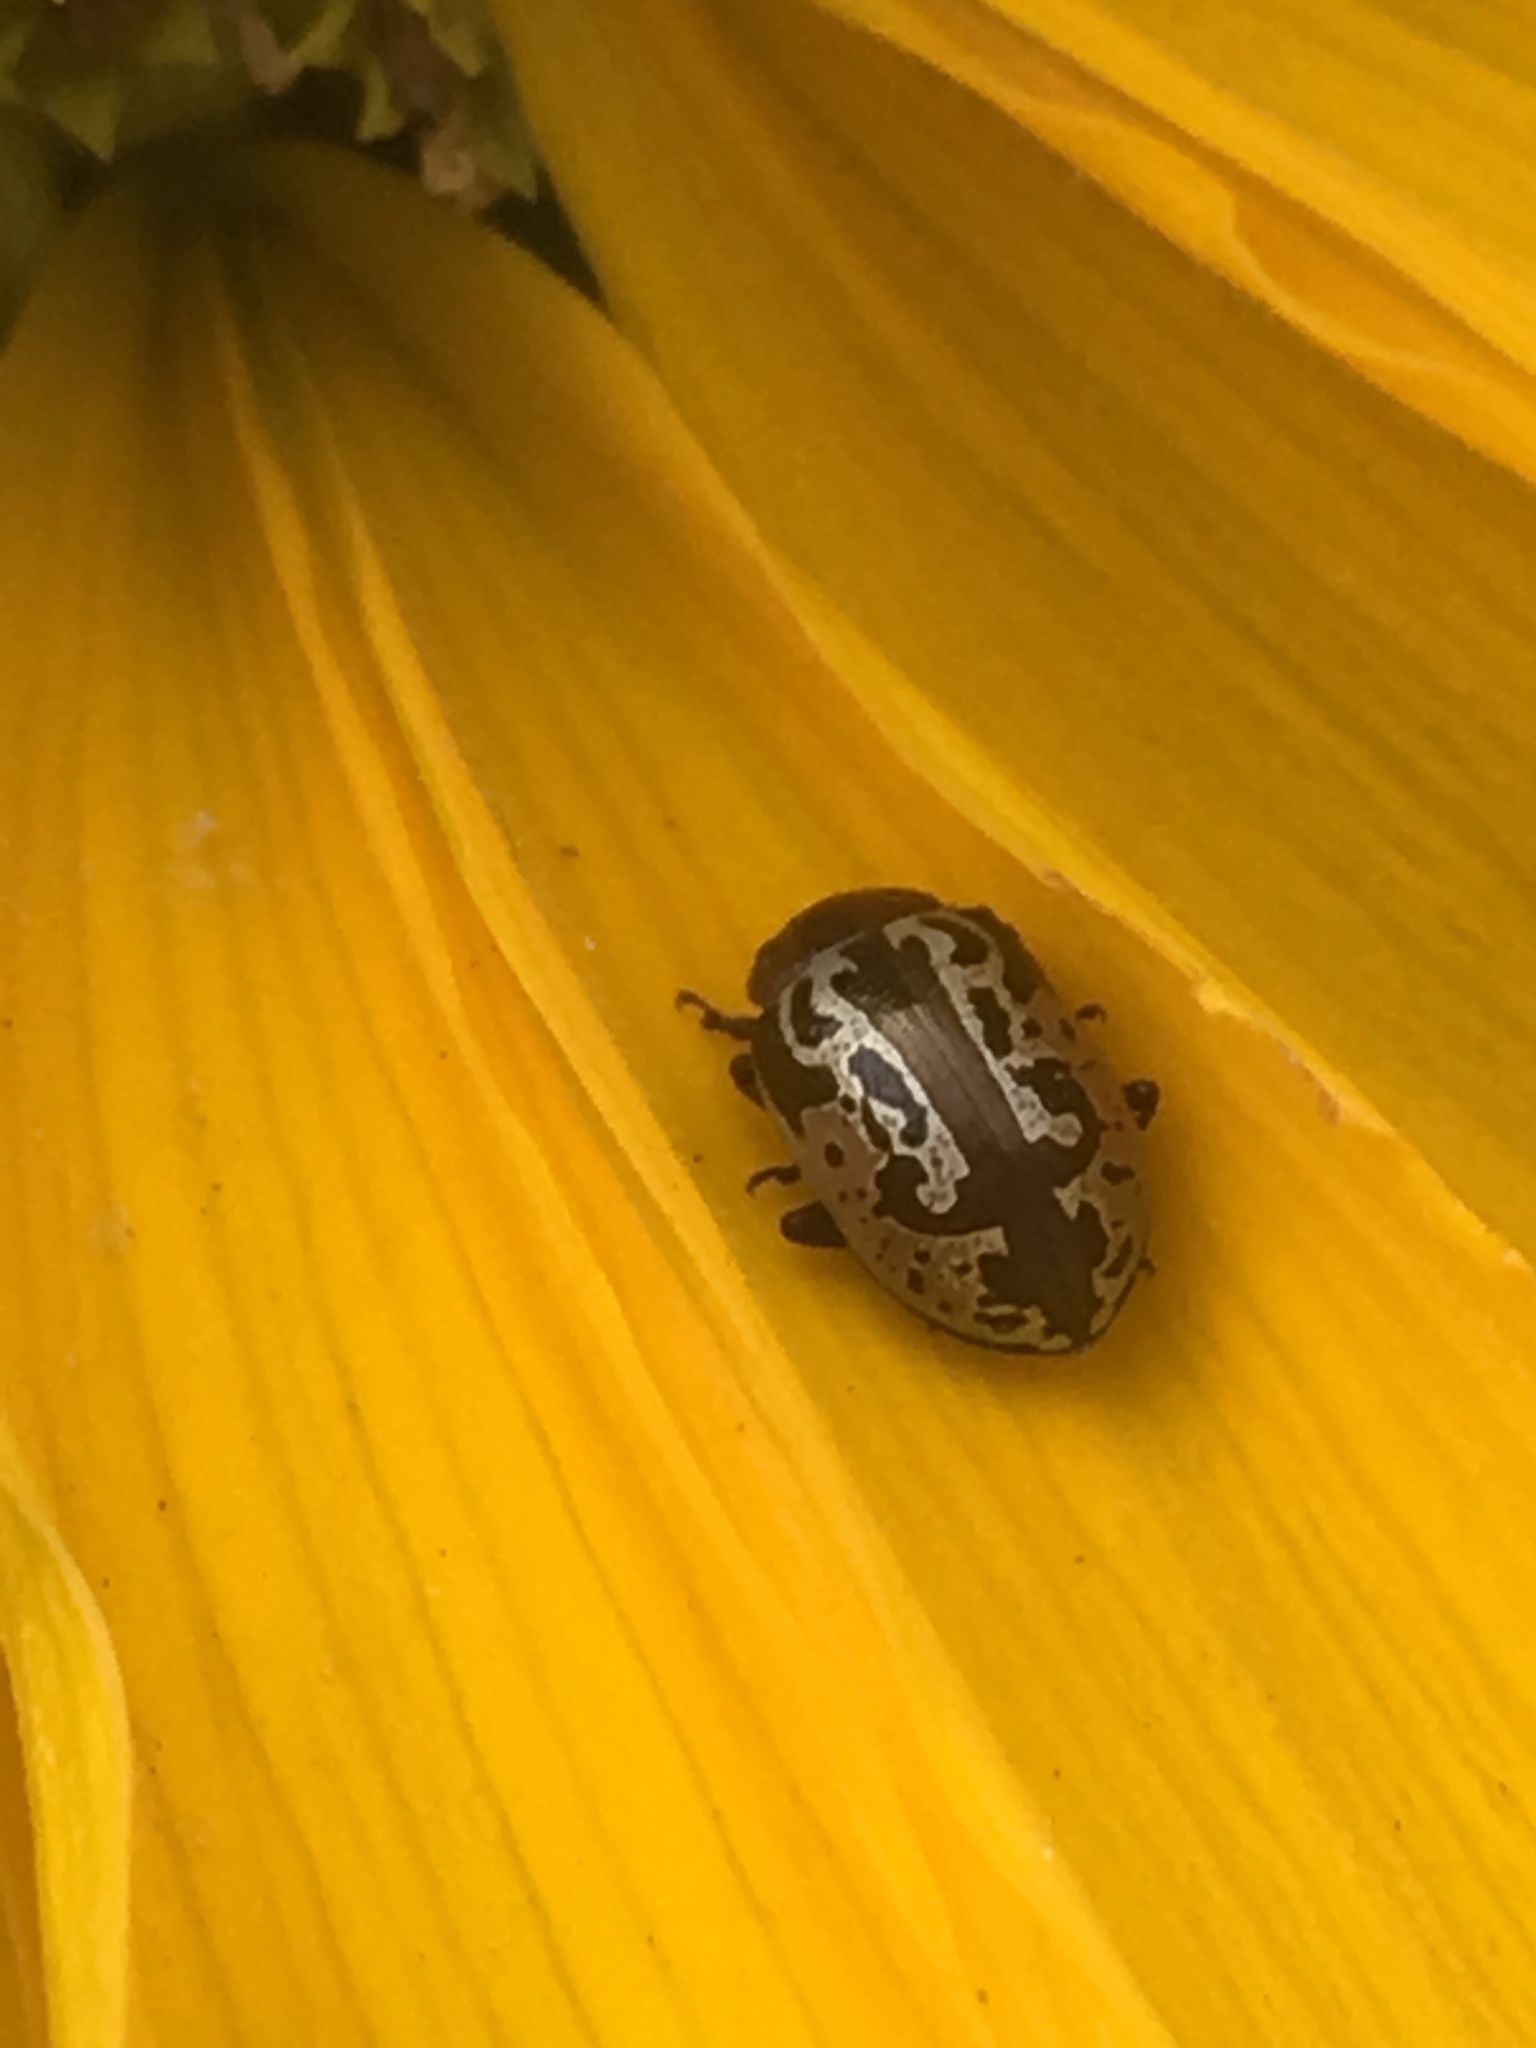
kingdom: Animalia
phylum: Arthropoda
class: Insecta
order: Coleoptera
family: Chrysomelidae
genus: Calligrapha
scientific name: Calligrapha
